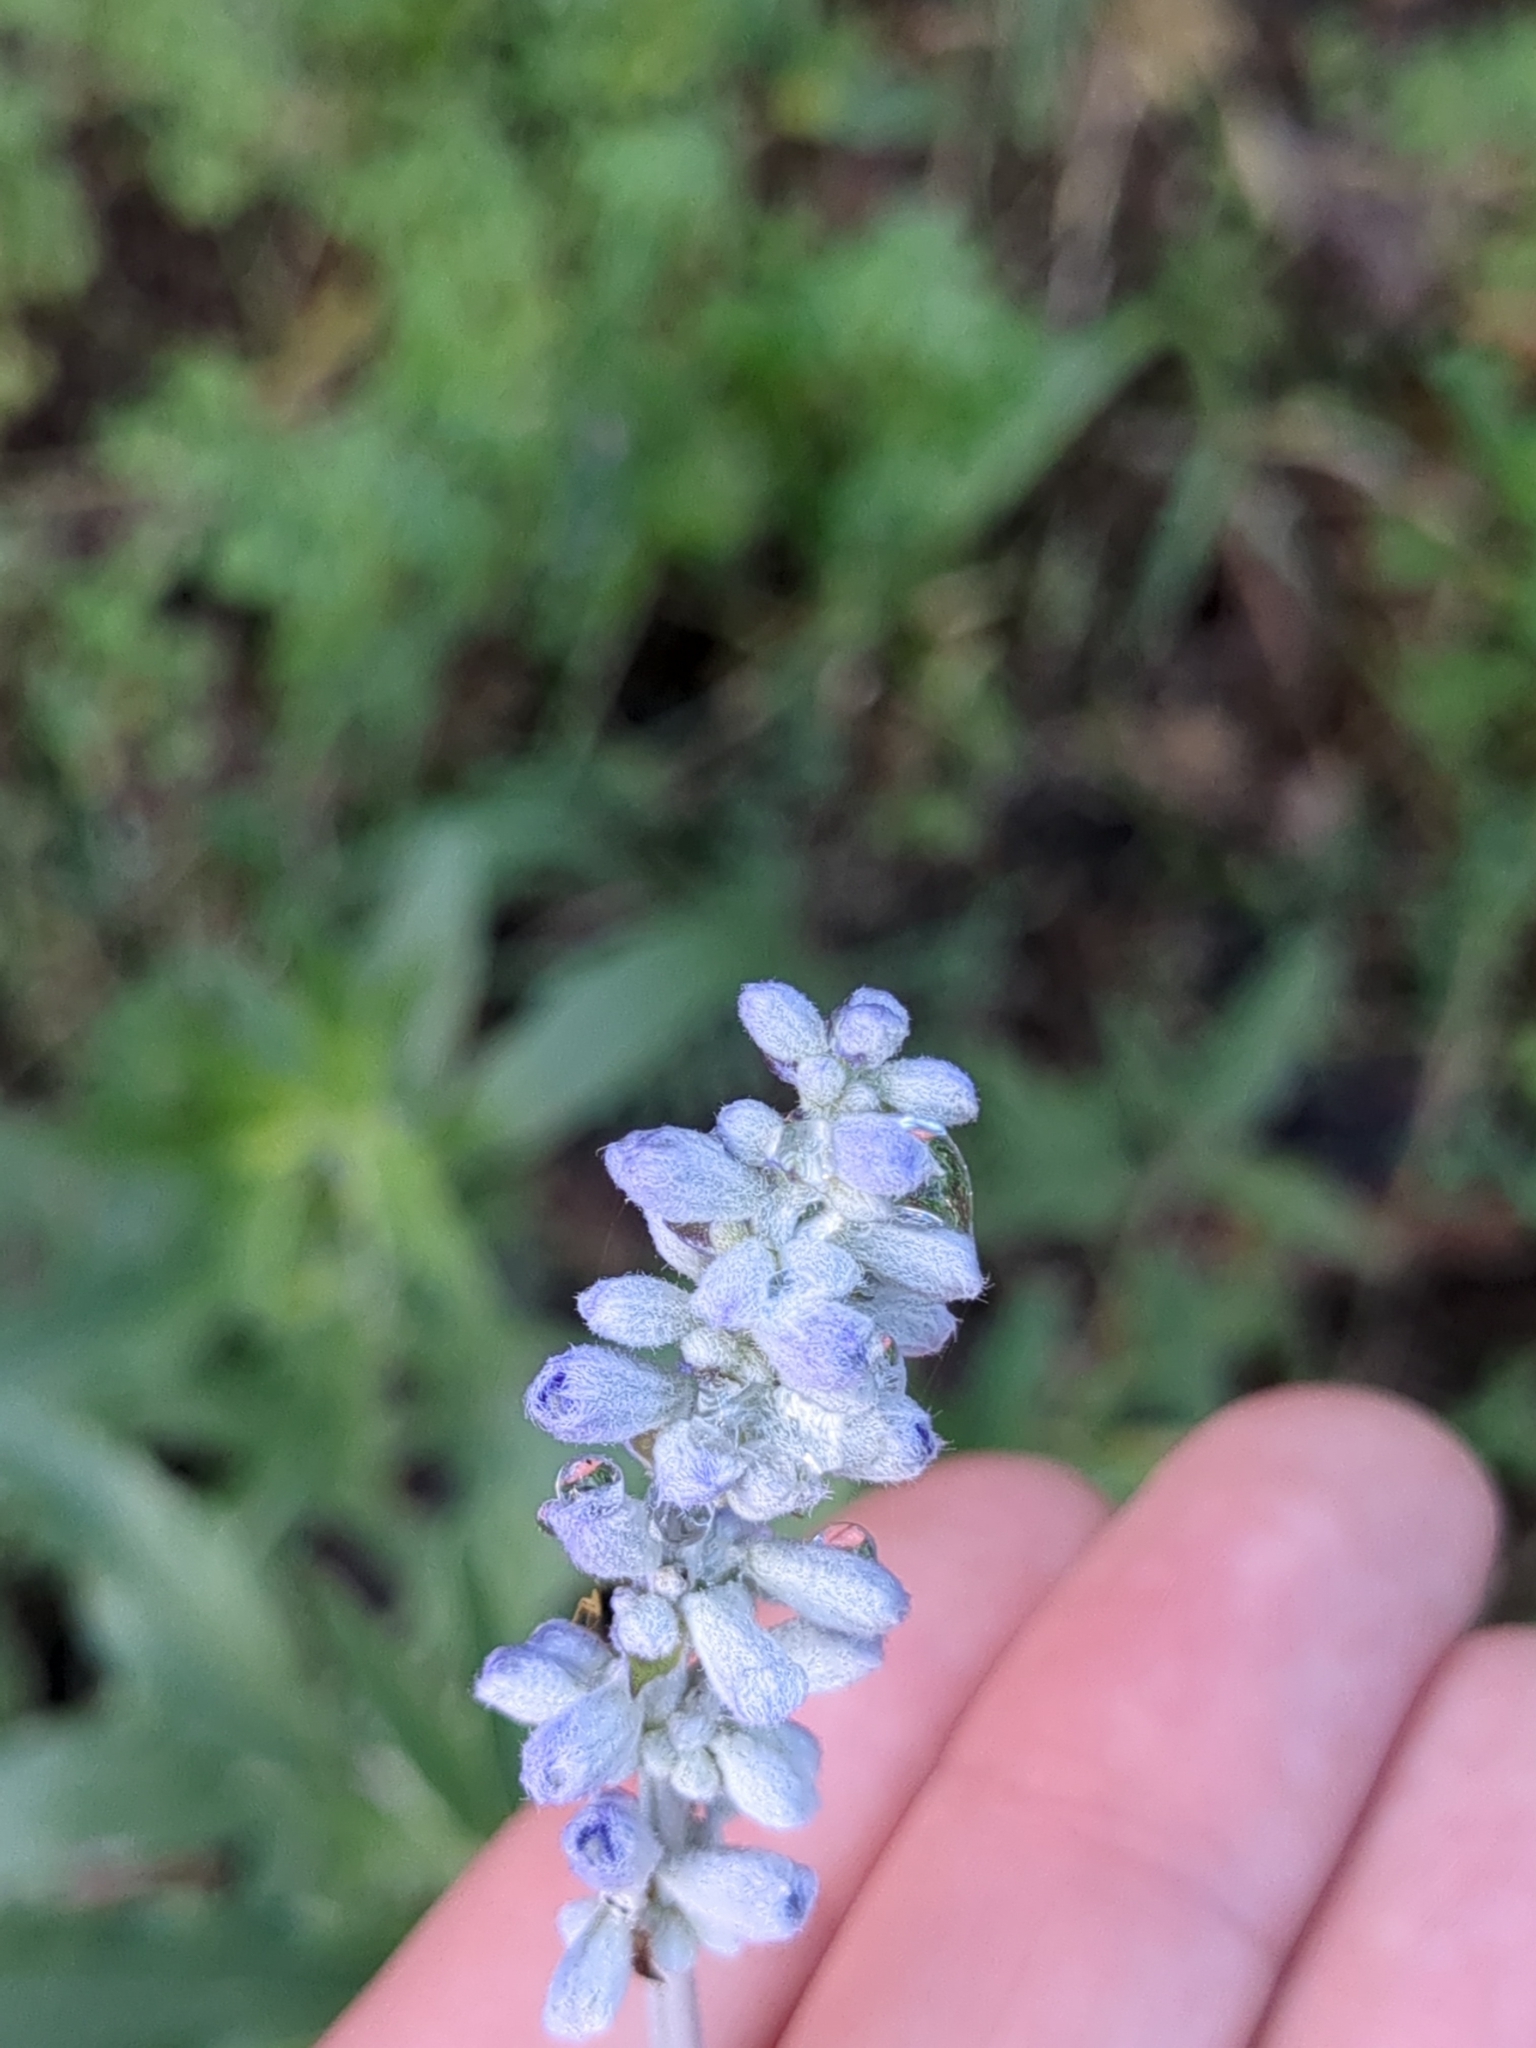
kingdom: Plantae
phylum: Tracheophyta
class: Magnoliopsida
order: Lamiales
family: Lamiaceae
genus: Salvia
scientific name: Salvia farinacea
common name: Mealy sage
